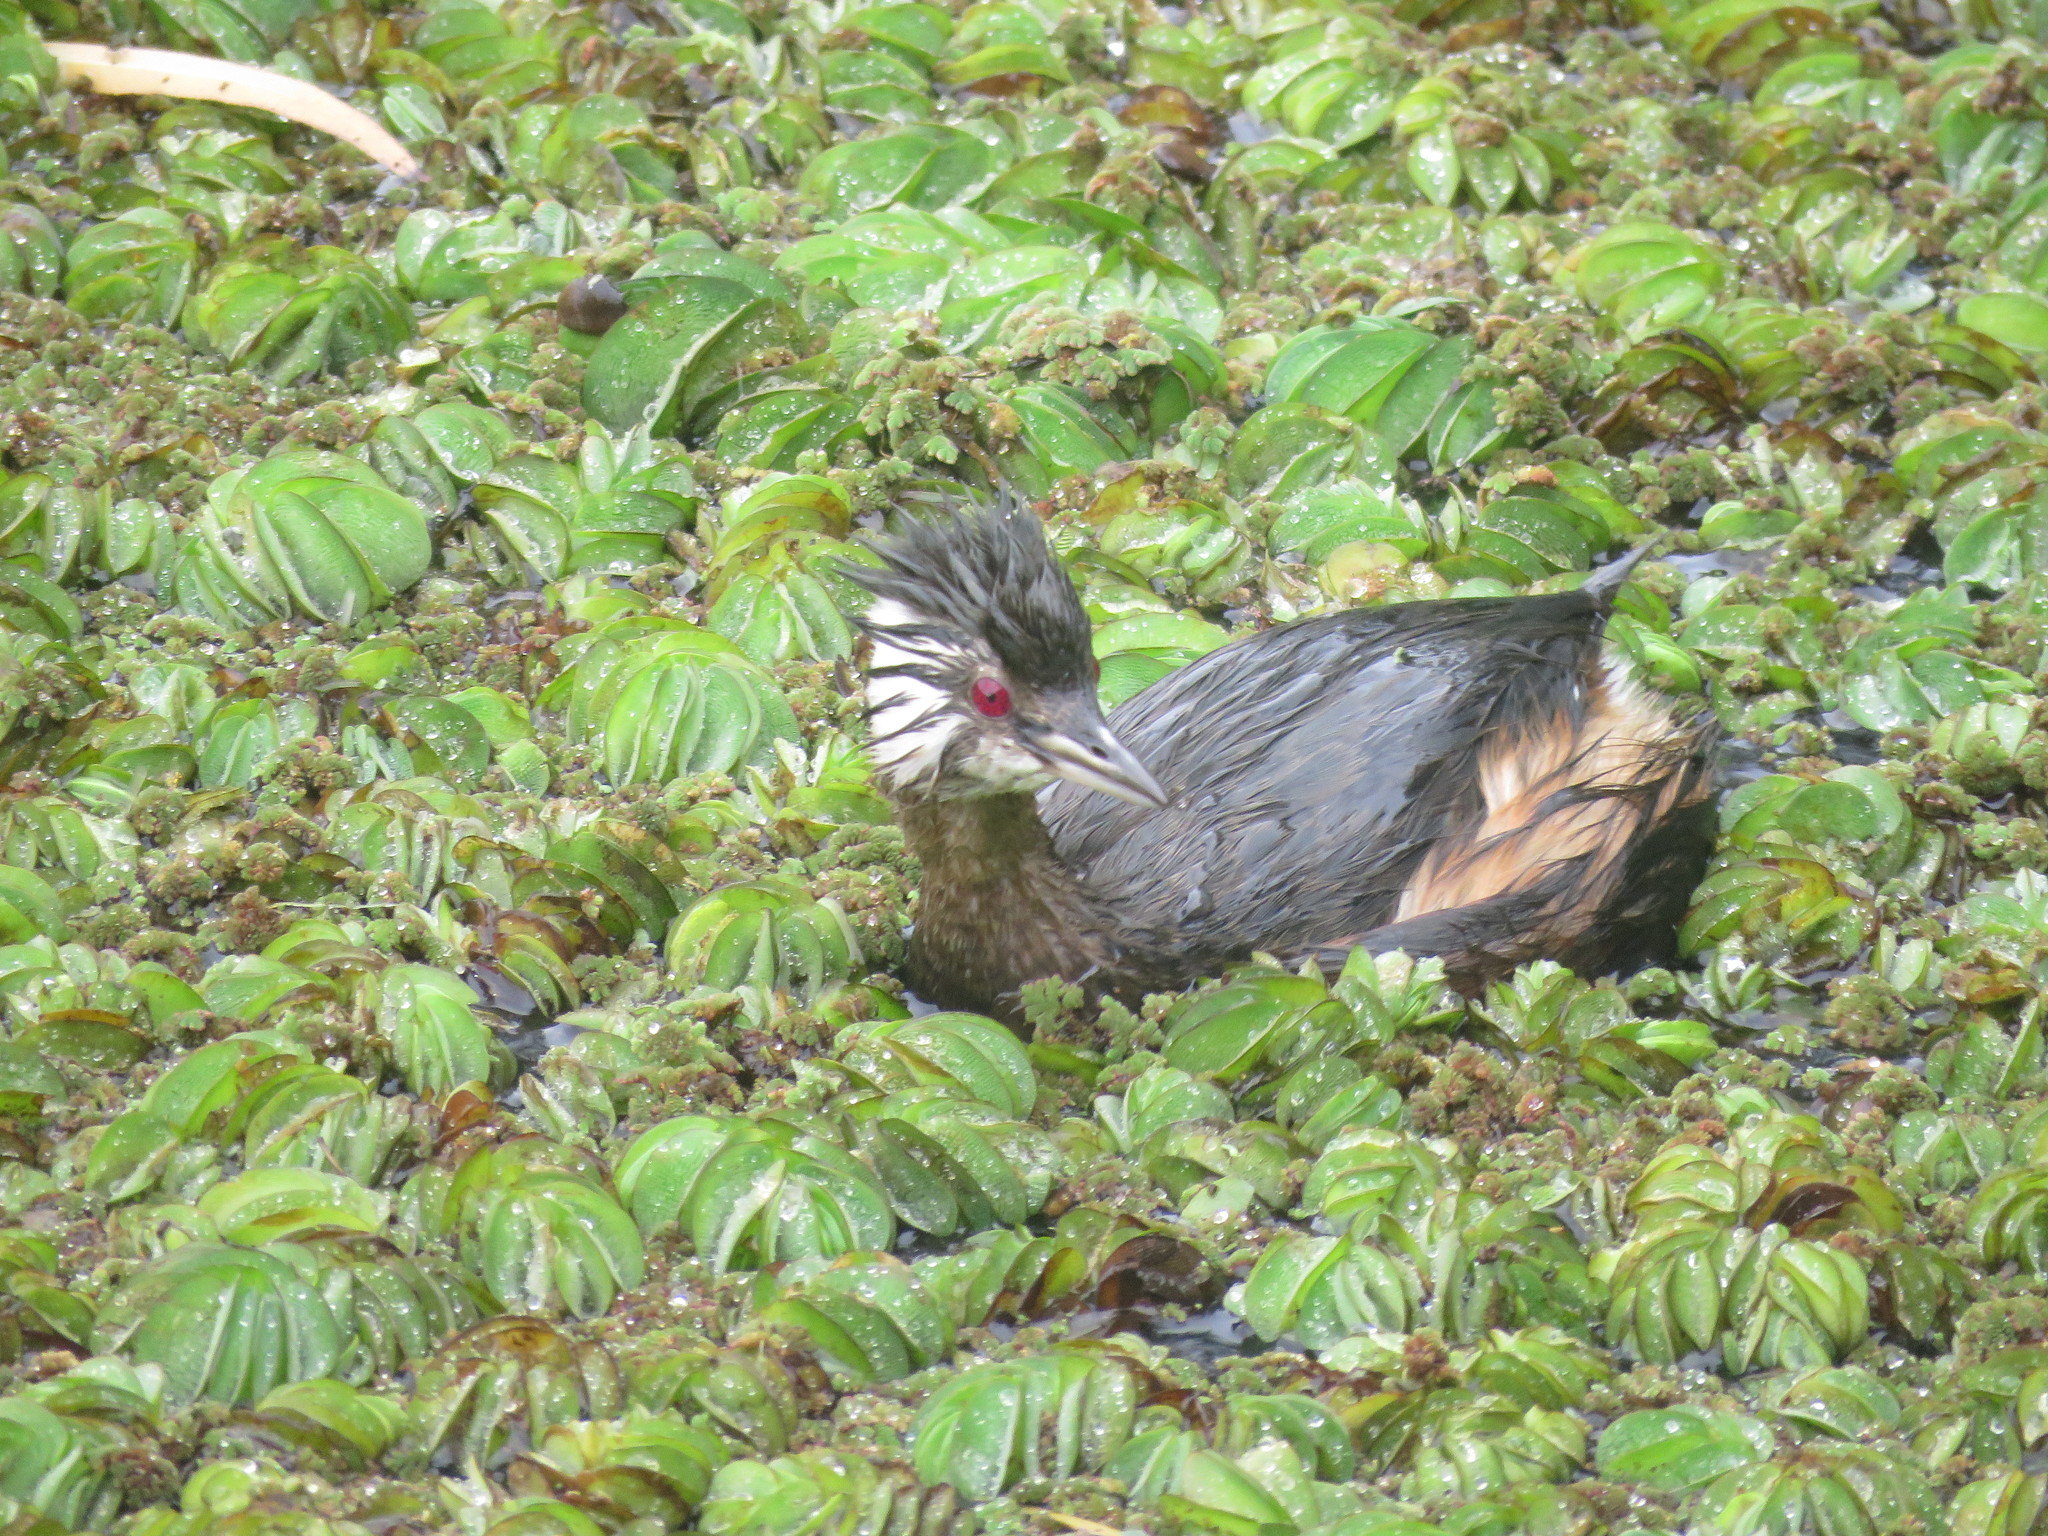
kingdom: Animalia
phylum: Chordata
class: Aves
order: Podicipediformes
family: Podicipedidae
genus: Rollandia
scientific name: Rollandia rolland
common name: White-tufted grebe
